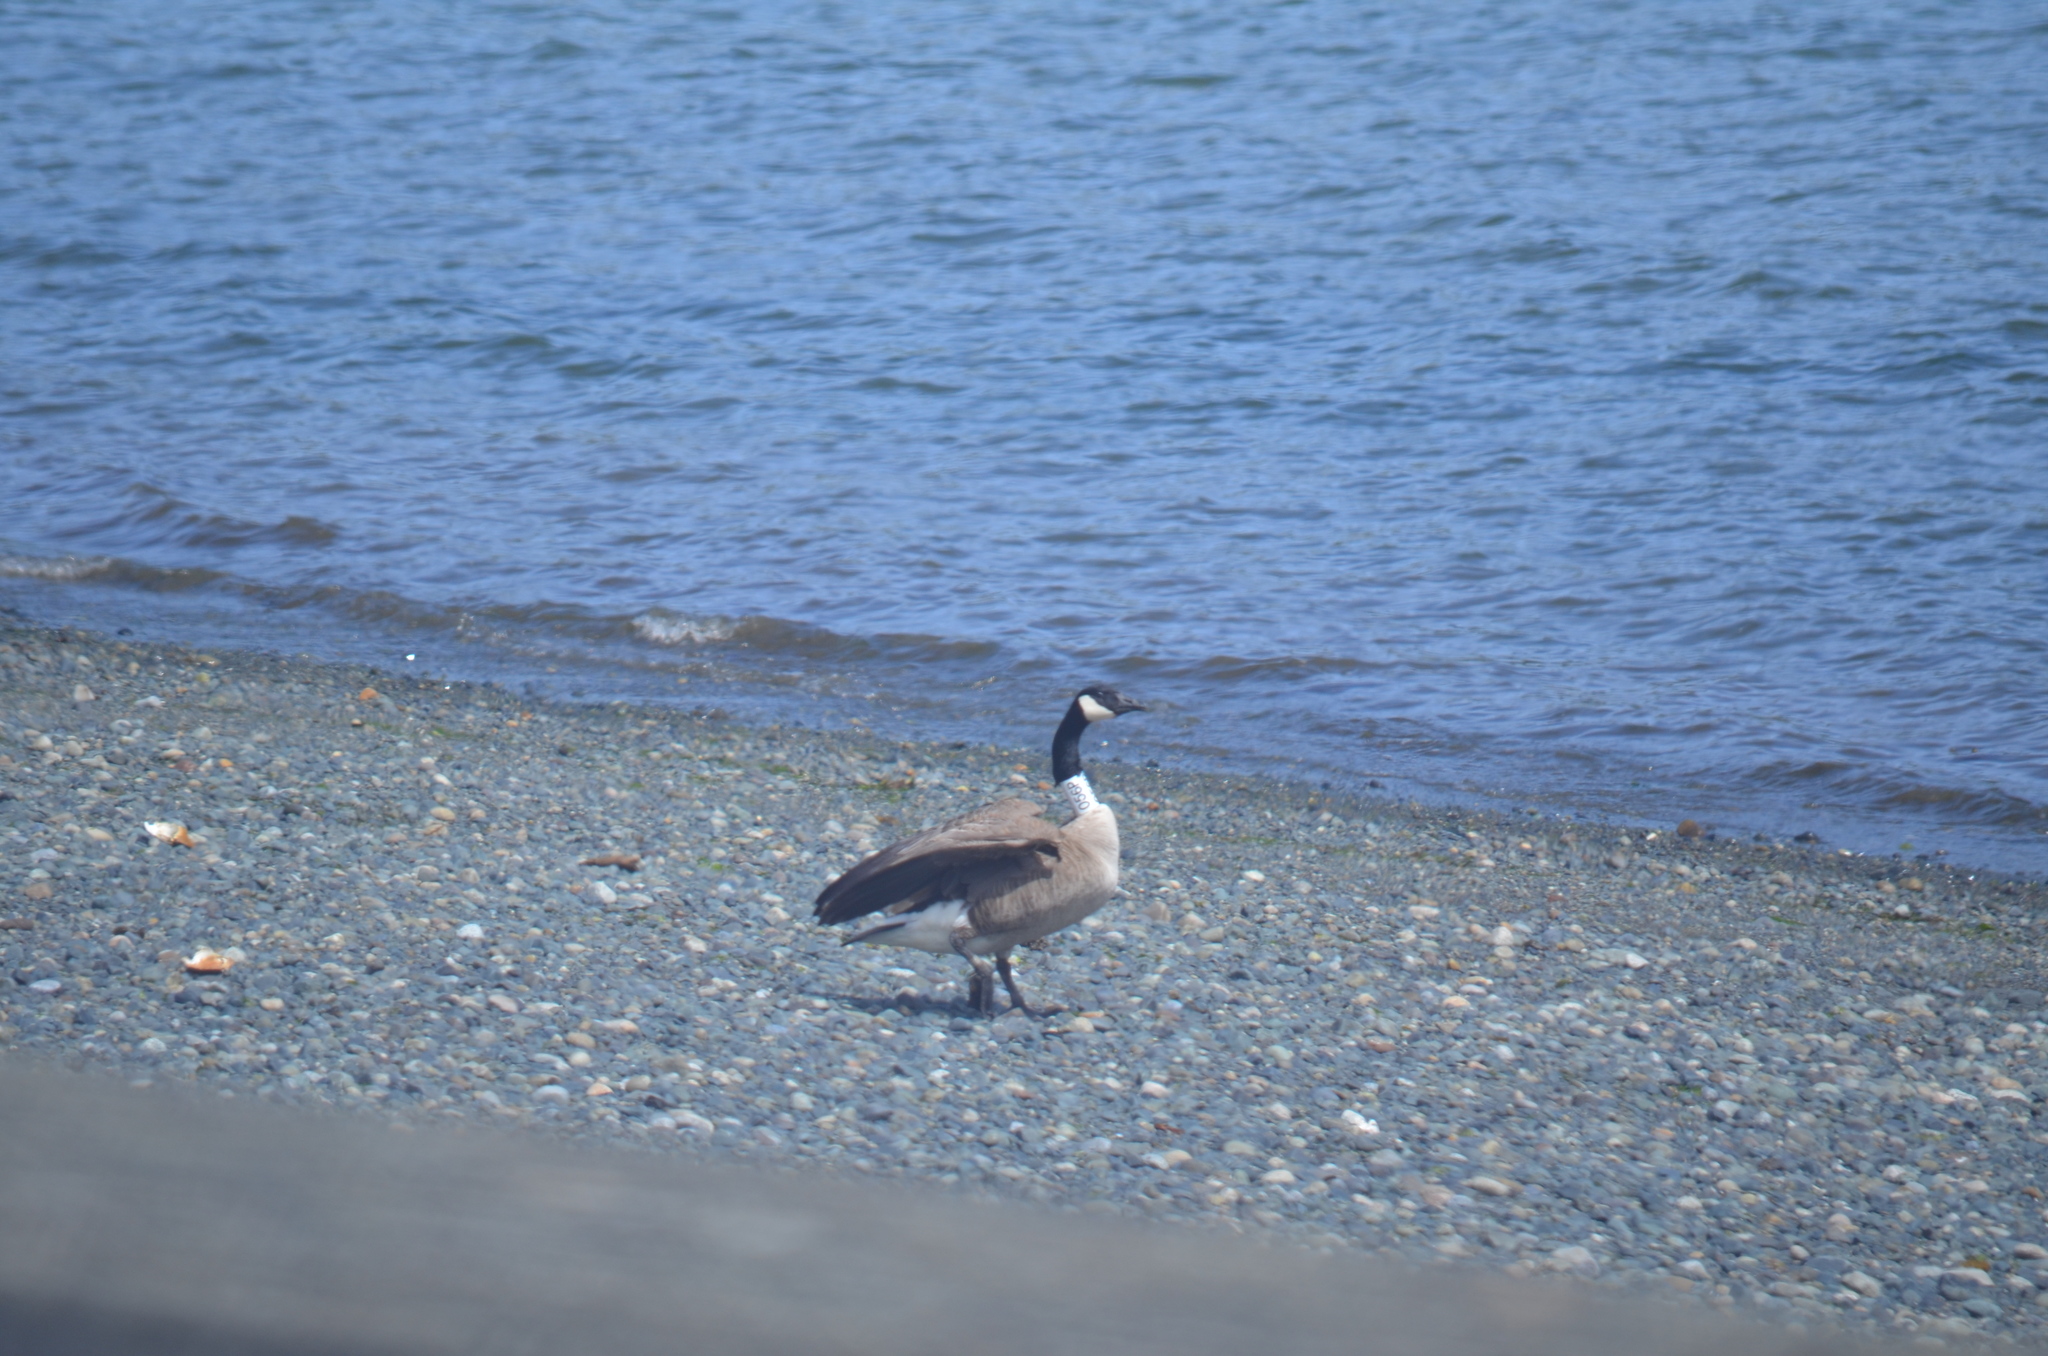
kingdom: Animalia
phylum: Chordata
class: Aves
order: Anseriformes
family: Anatidae
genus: Branta
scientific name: Branta canadensis
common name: Canada goose
